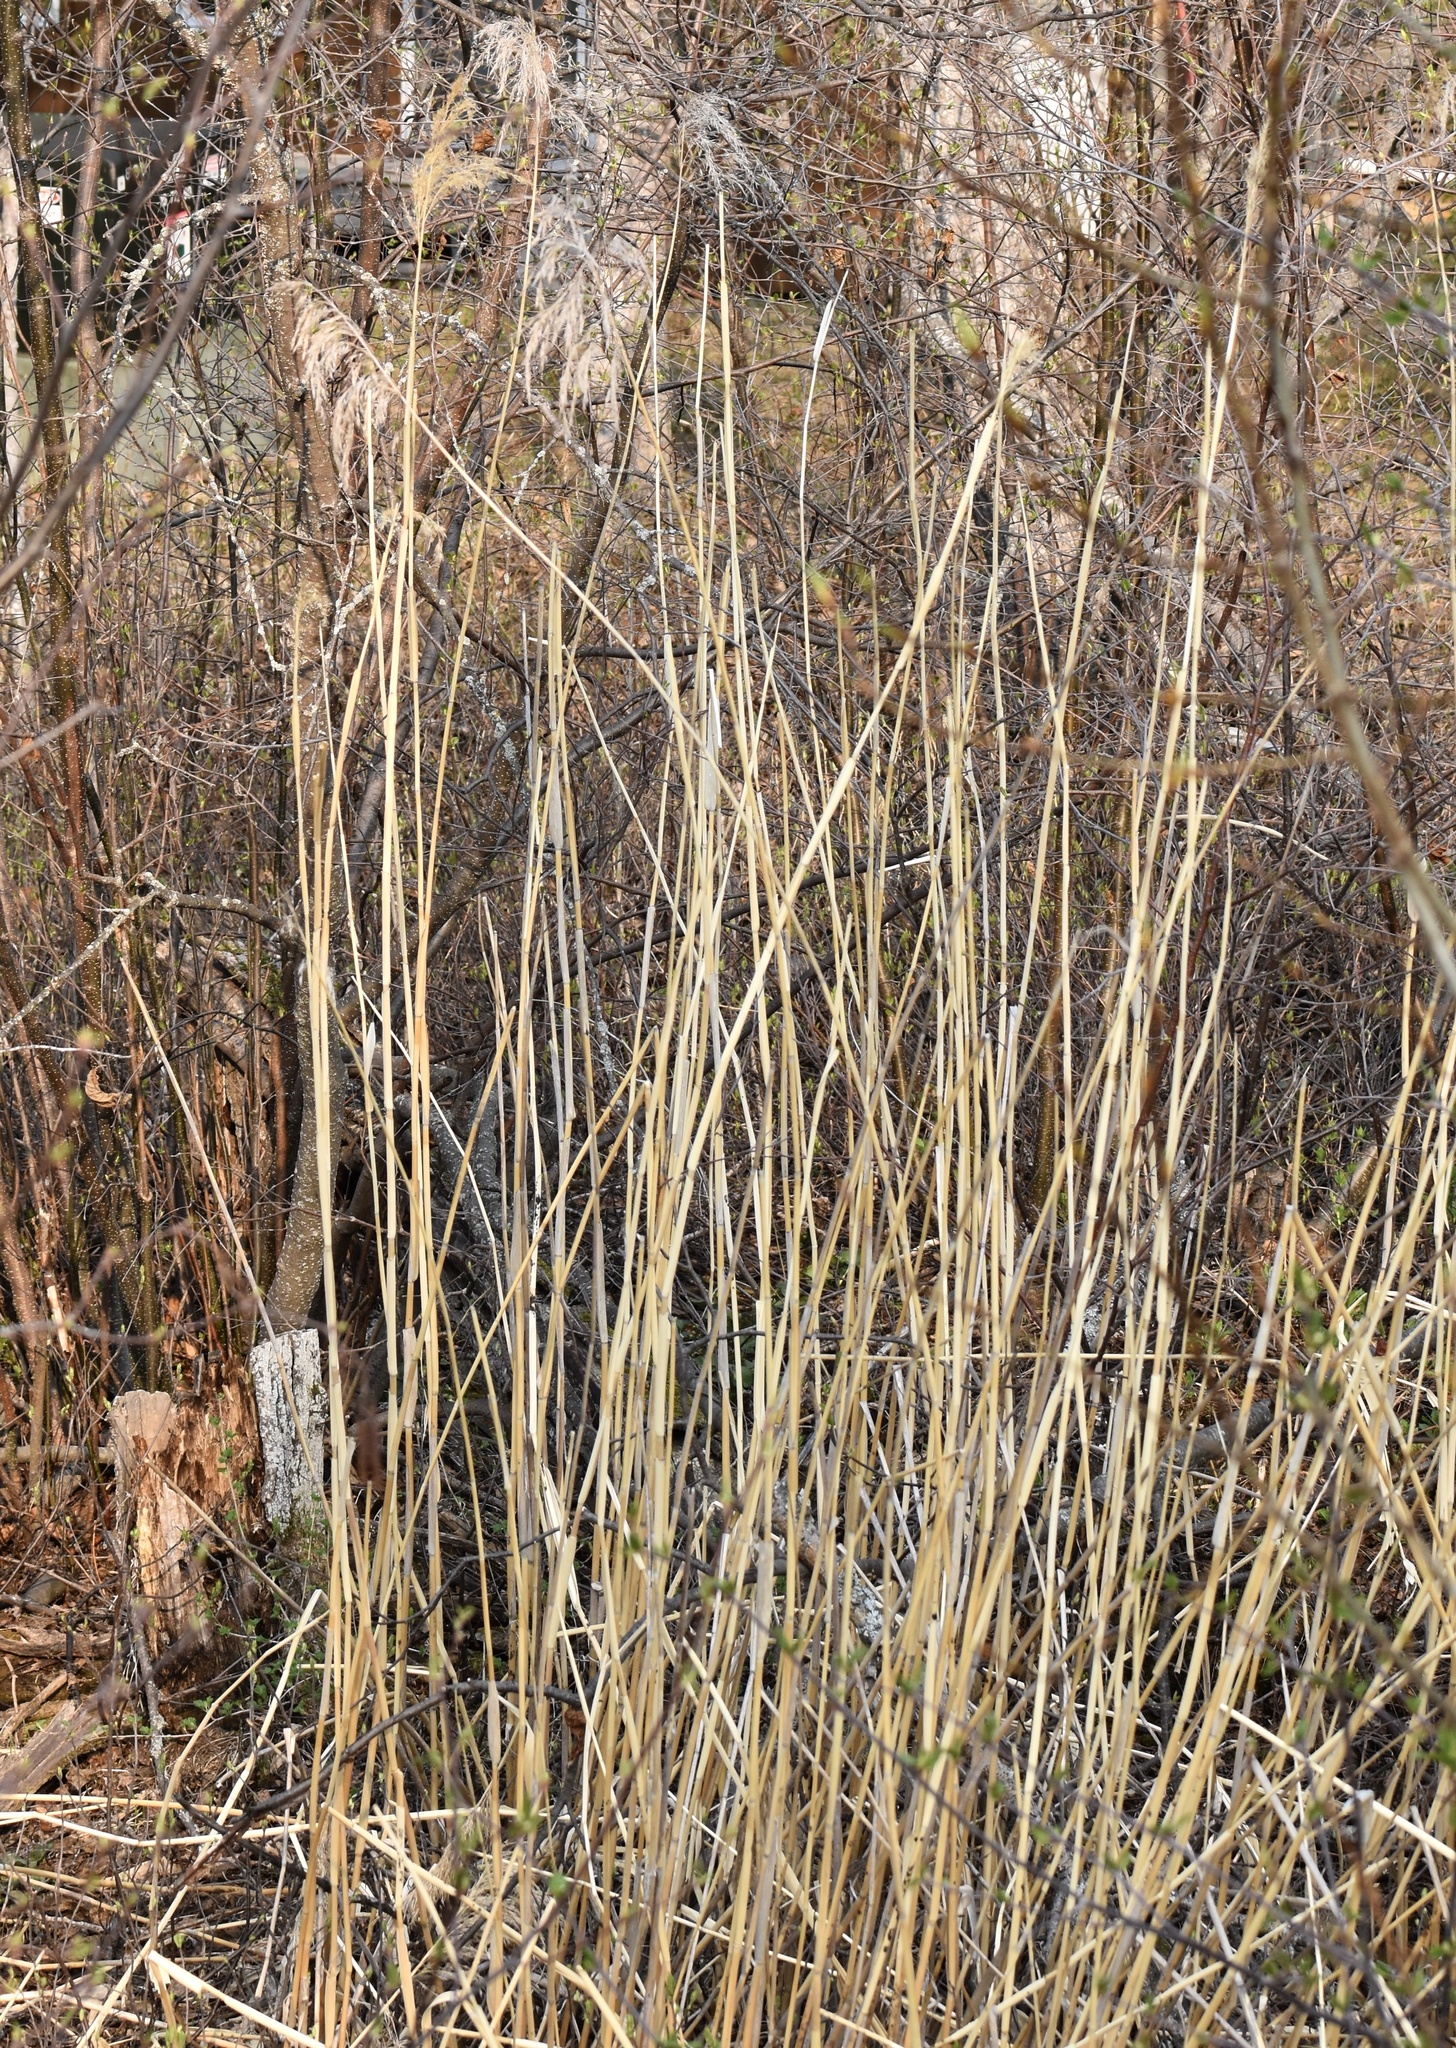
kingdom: Plantae
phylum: Tracheophyta
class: Liliopsida
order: Poales
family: Poaceae
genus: Phragmites
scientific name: Phragmites australis
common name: Common reed
